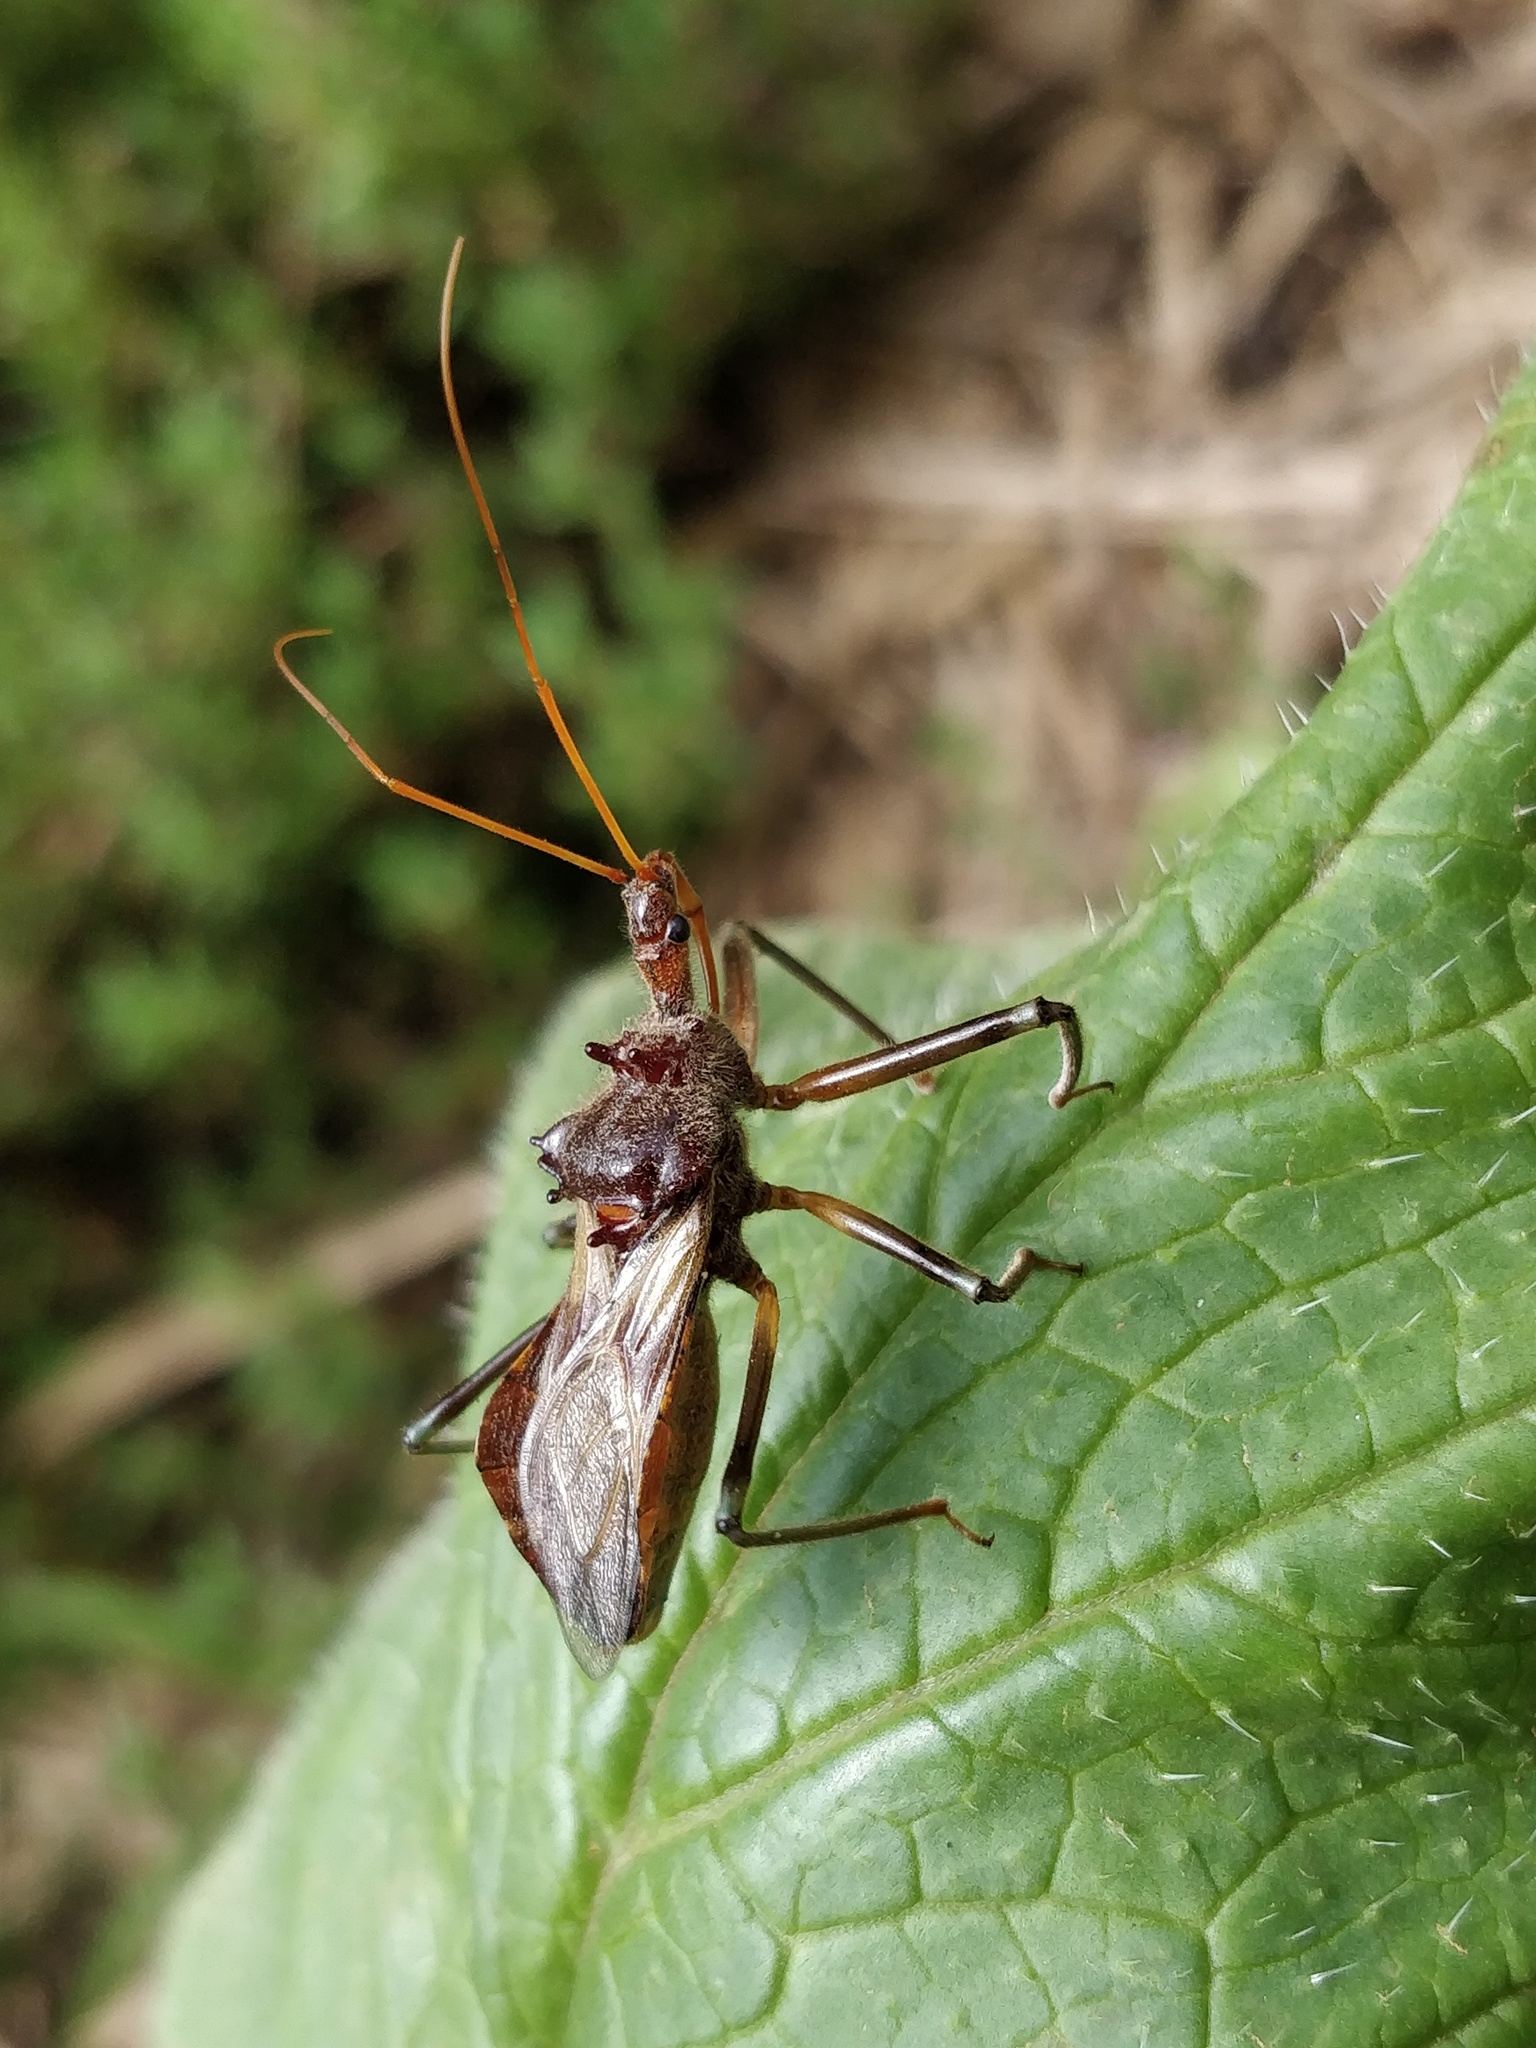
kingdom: Animalia
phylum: Arthropoda
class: Insecta
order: Hemiptera
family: Reduviidae
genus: Pristhesancus
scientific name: Pristhesancus plagipennis
